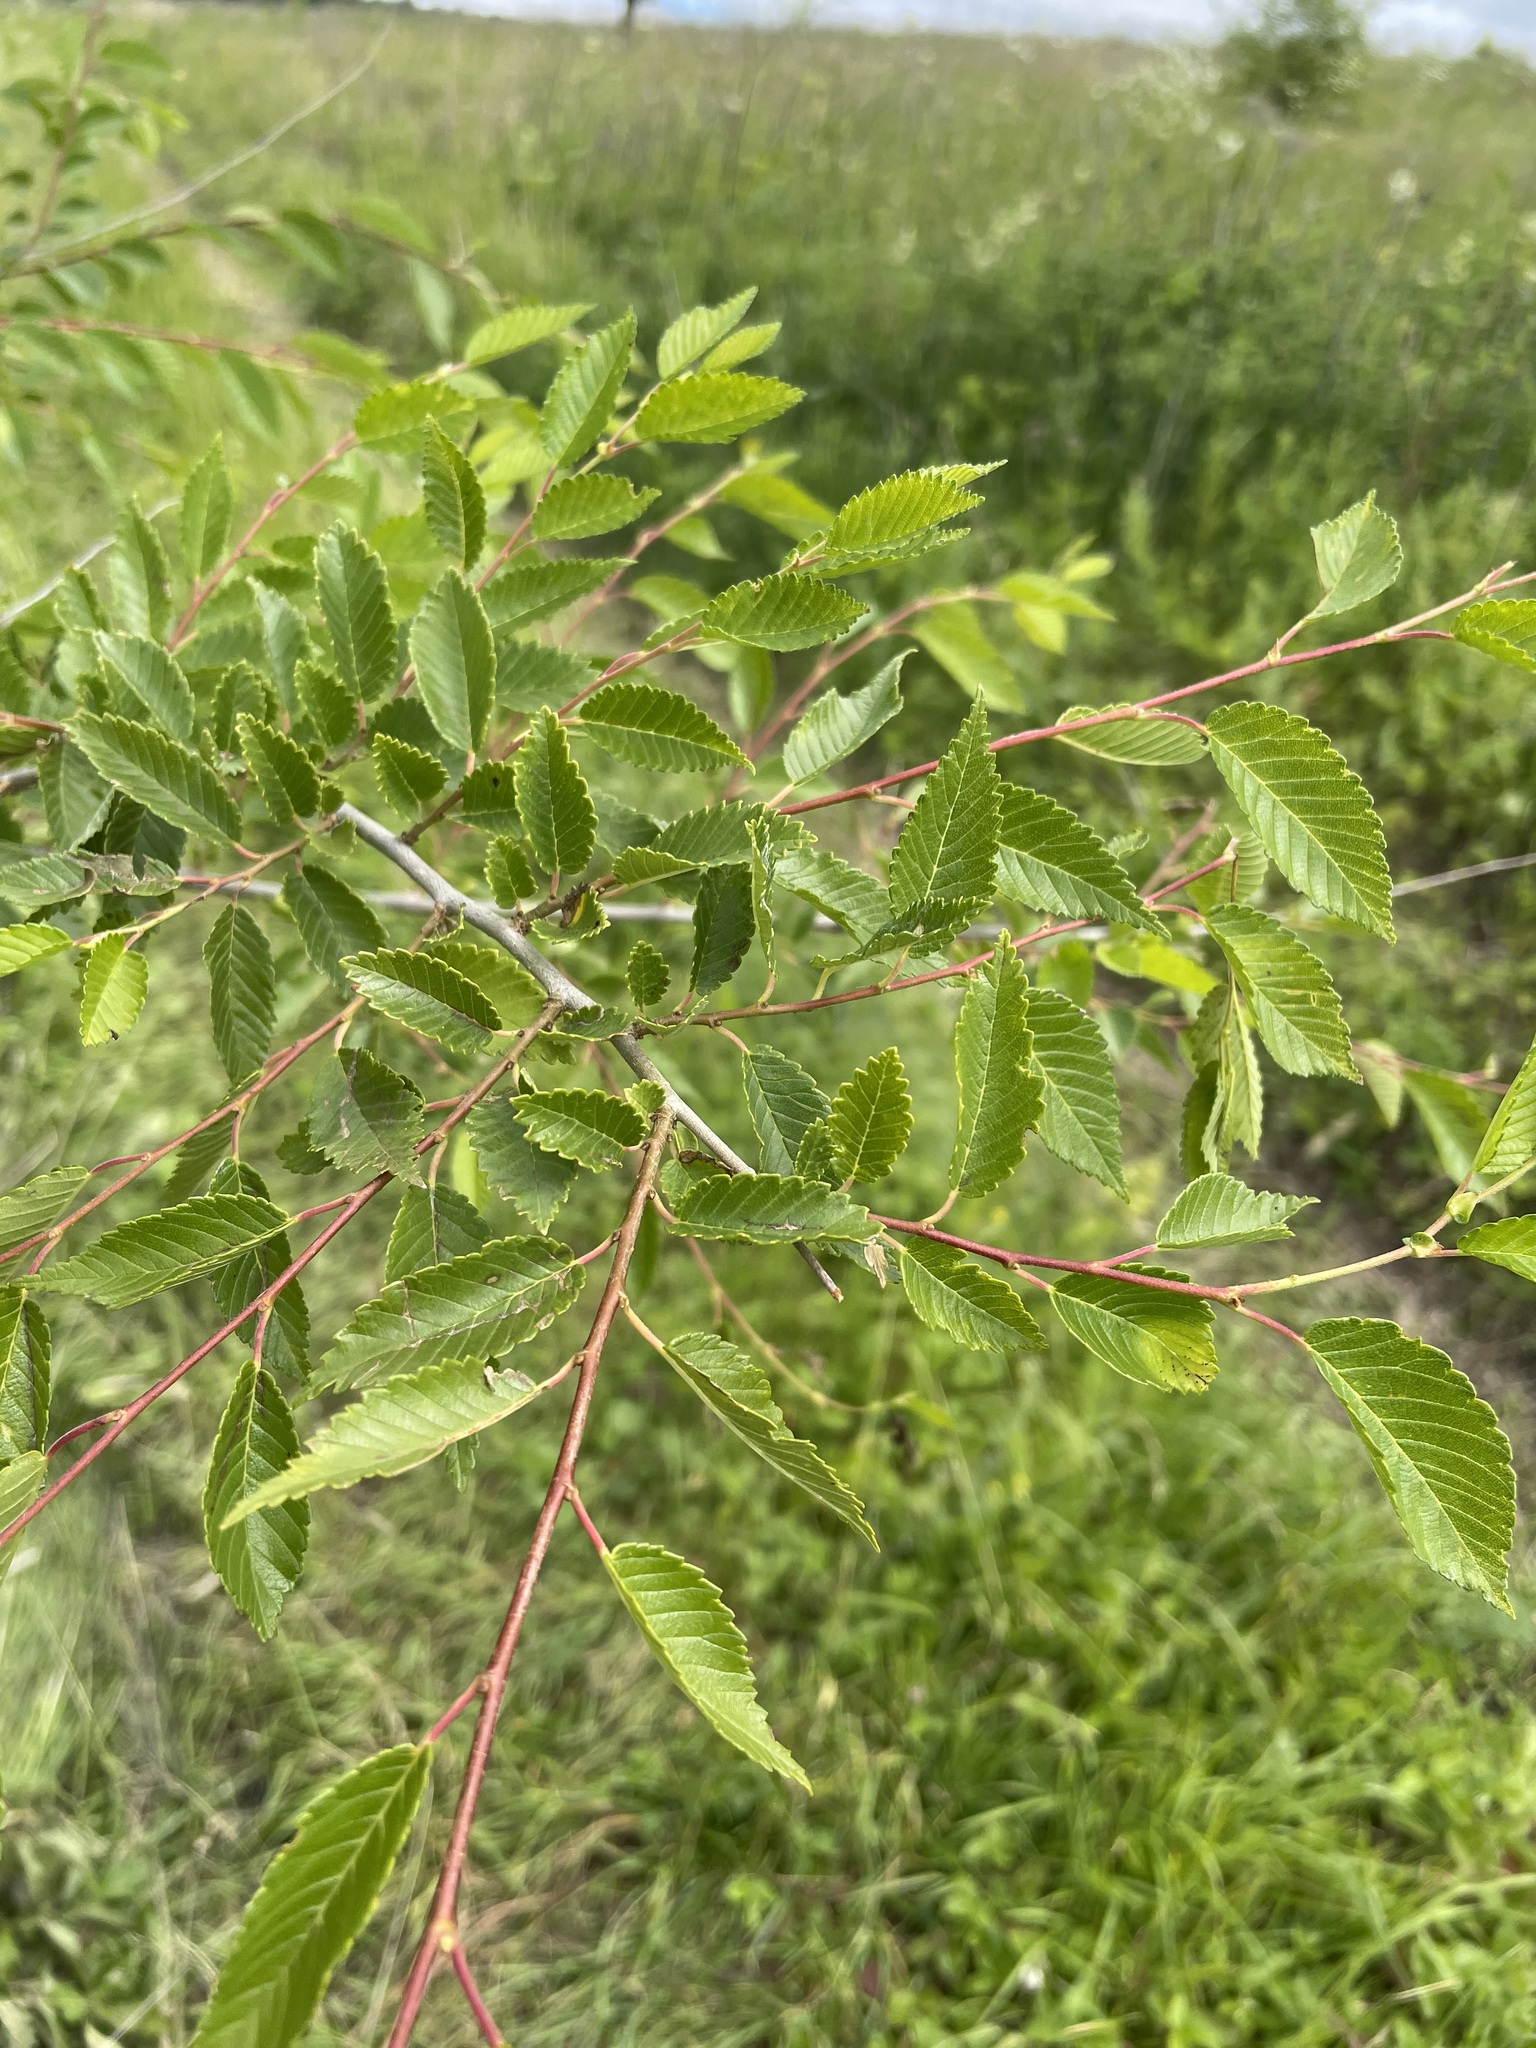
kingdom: Plantae
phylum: Tracheophyta
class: Magnoliopsida
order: Rosales
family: Ulmaceae
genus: Ulmus
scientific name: Ulmus pumila
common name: Siberian elm
